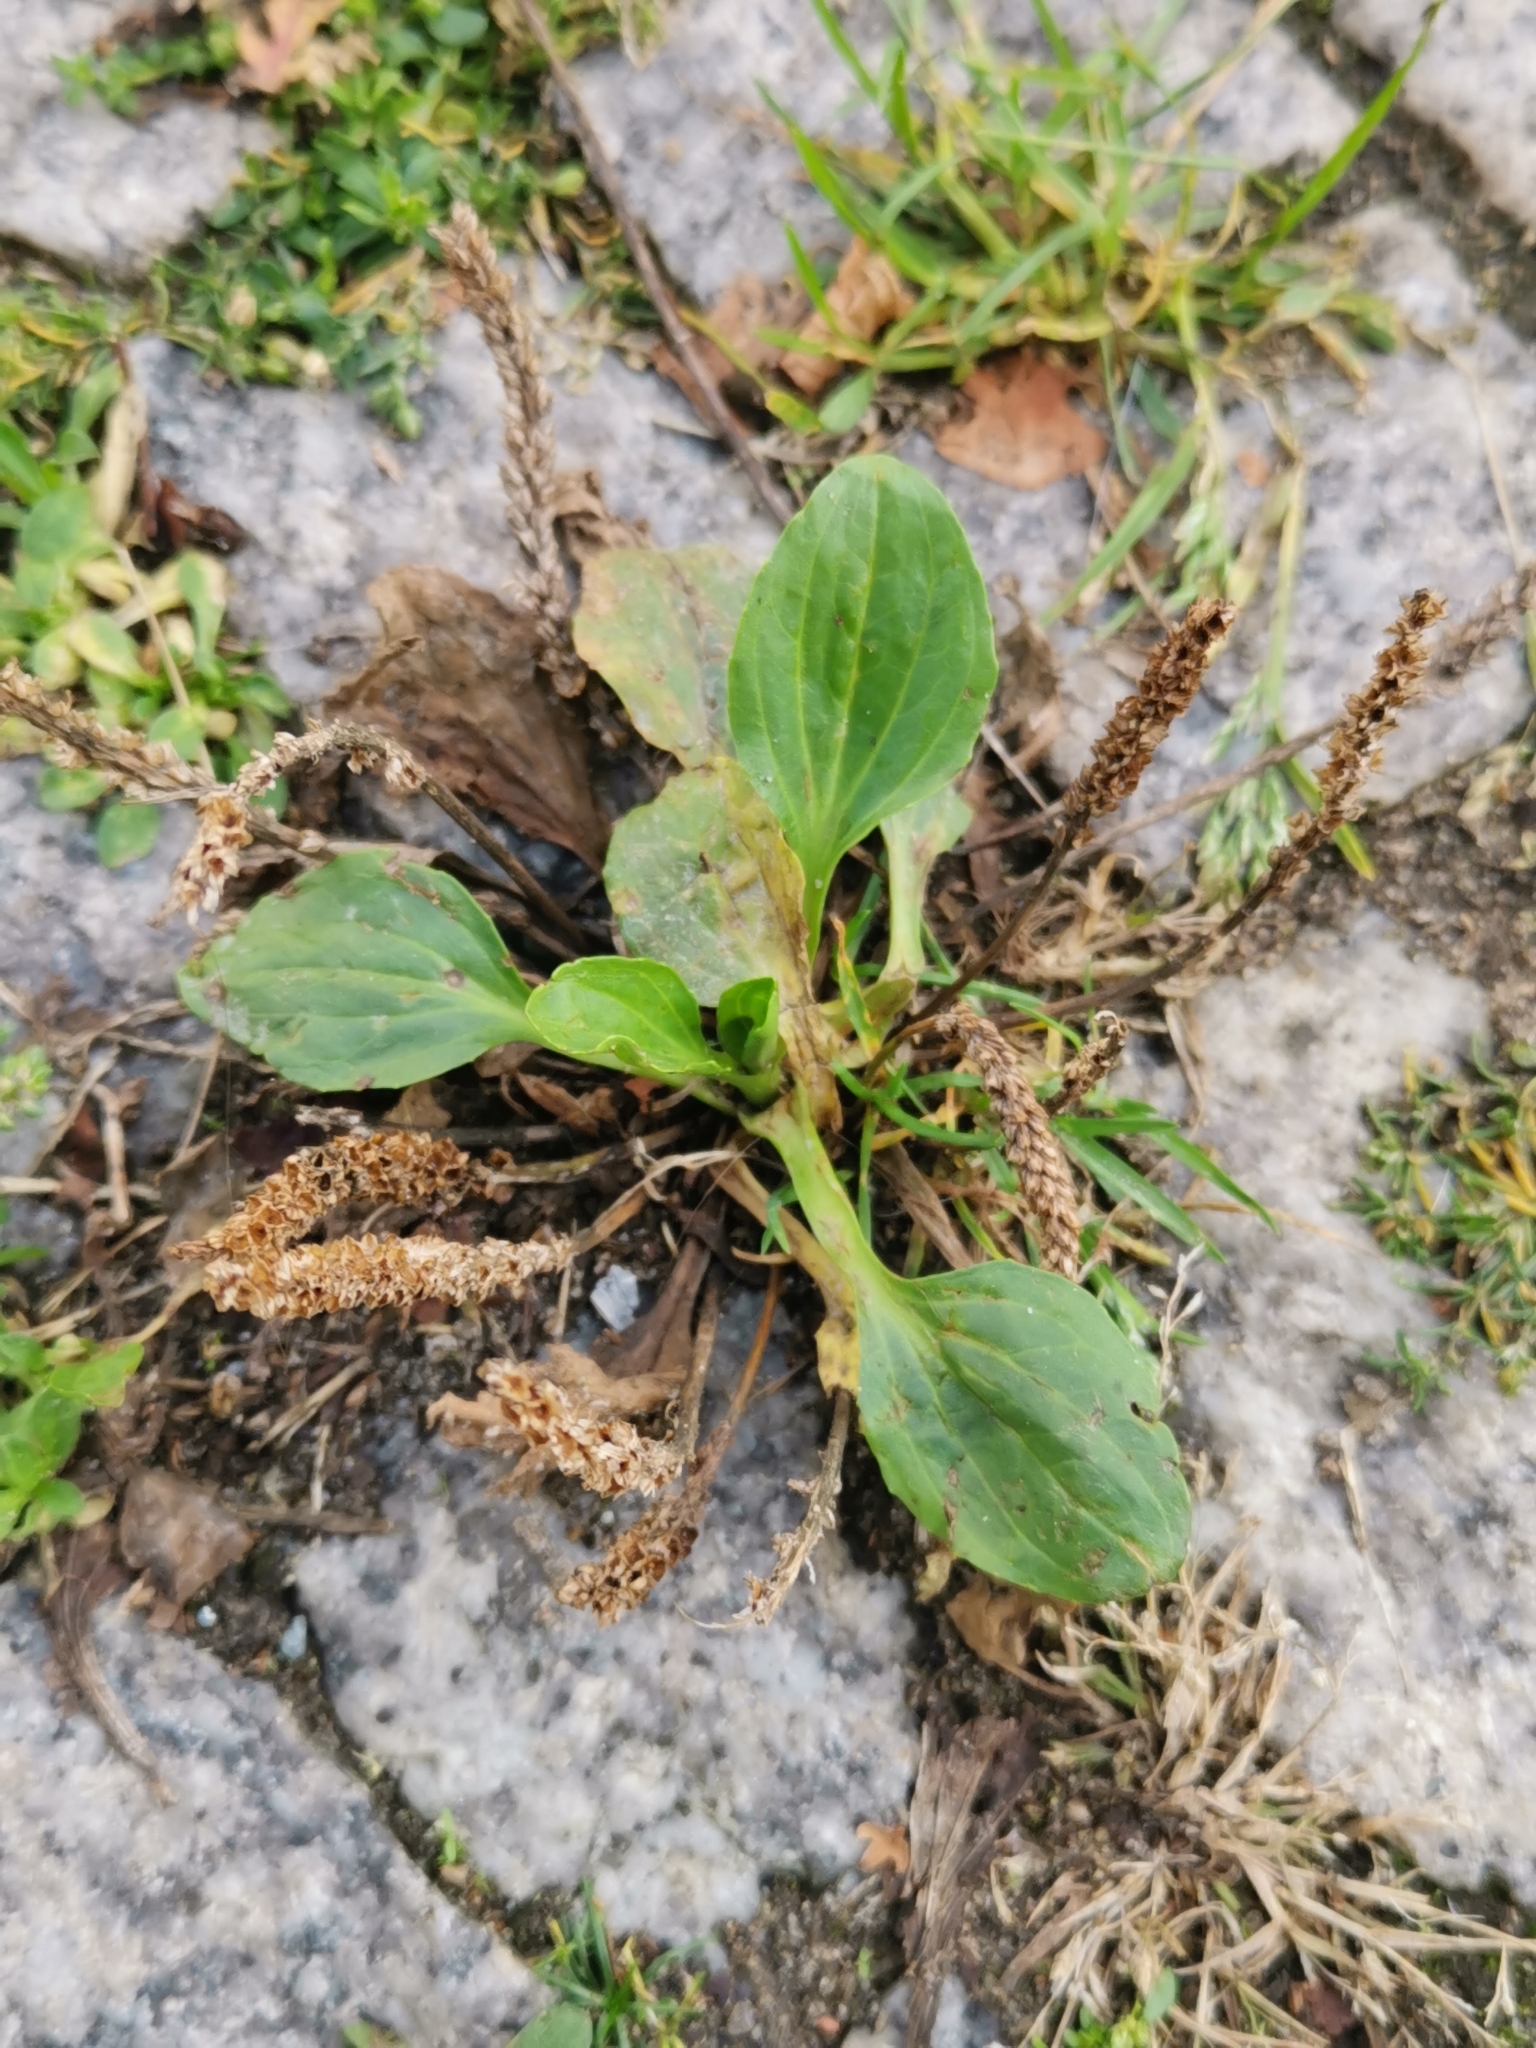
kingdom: Plantae
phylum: Tracheophyta
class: Magnoliopsida
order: Lamiales
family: Plantaginaceae
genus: Plantago
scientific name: Plantago major
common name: Common plantain
